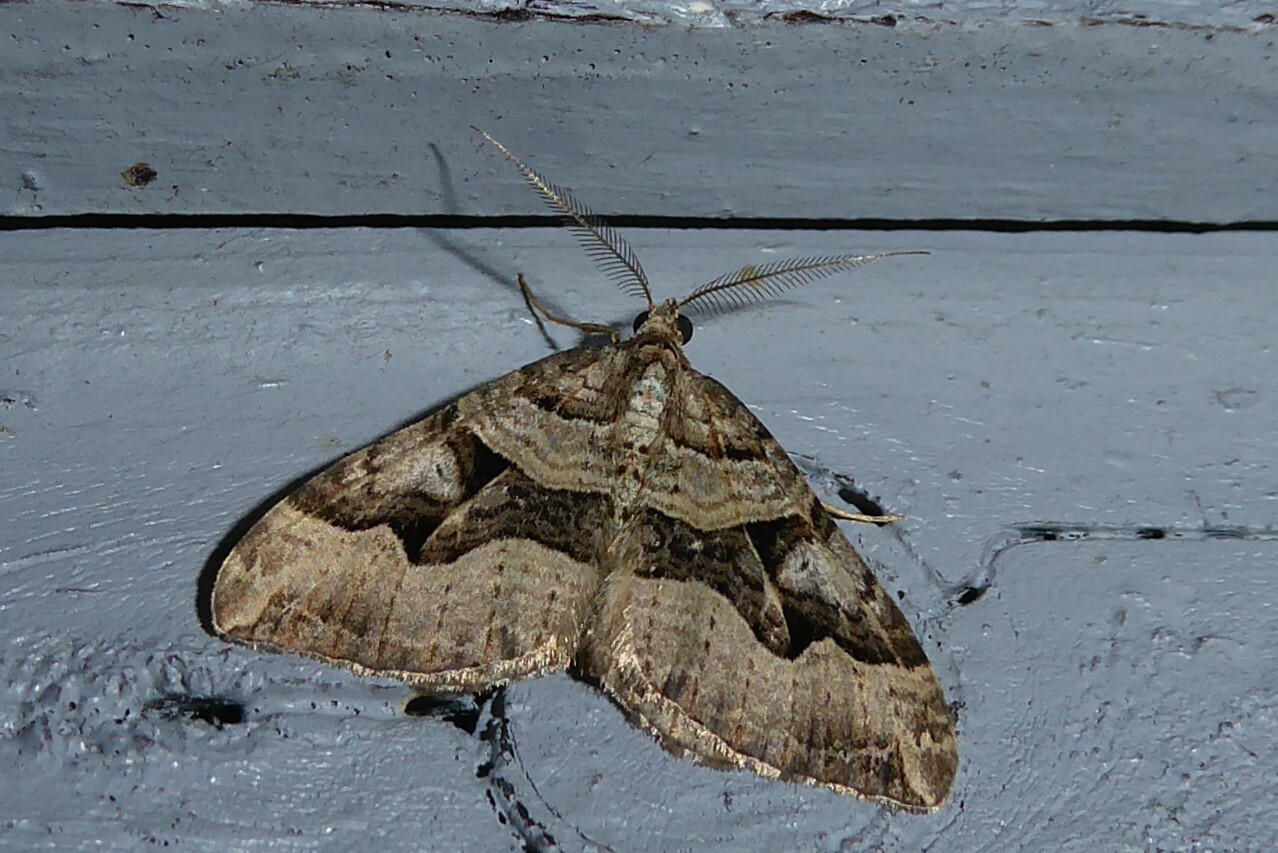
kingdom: Animalia
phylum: Arthropoda
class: Insecta
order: Lepidoptera
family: Geometridae
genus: Xanthorhoe
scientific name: Xanthorhoe semifissata
